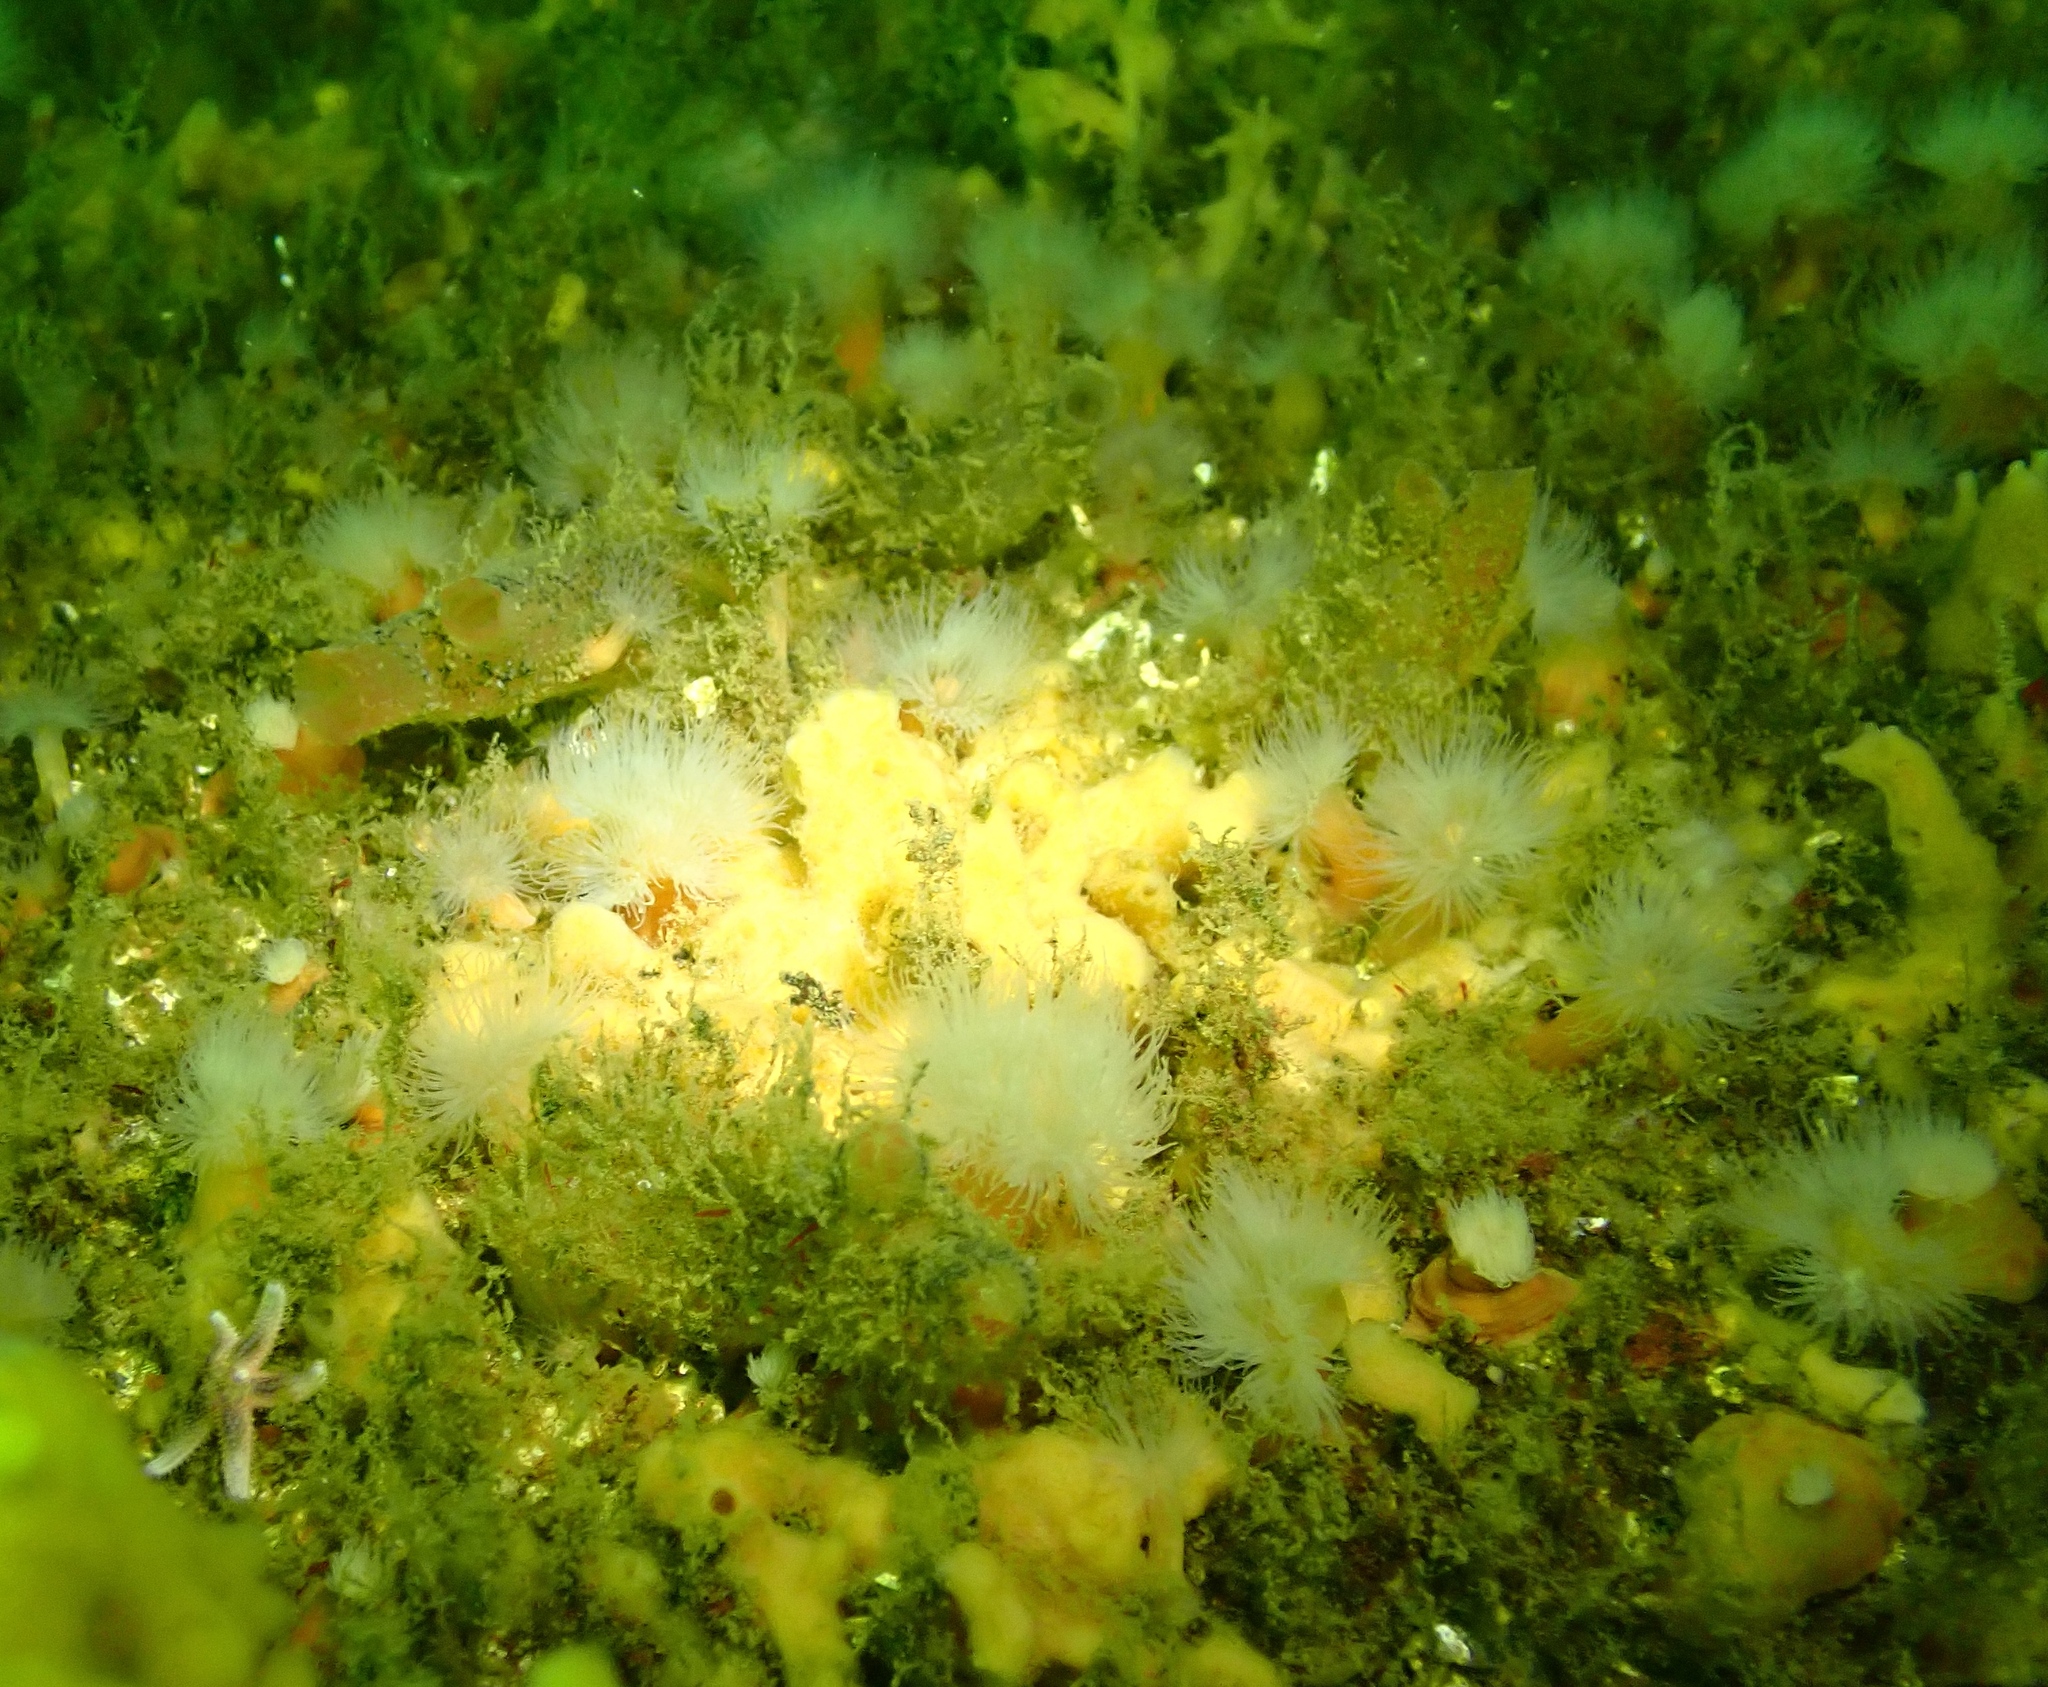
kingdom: Animalia
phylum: Cnidaria
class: Anthozoa
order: Actiniaria
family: Metridiidae
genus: Metridium
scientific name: Metridium senile
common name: Clonal plumose anemone
